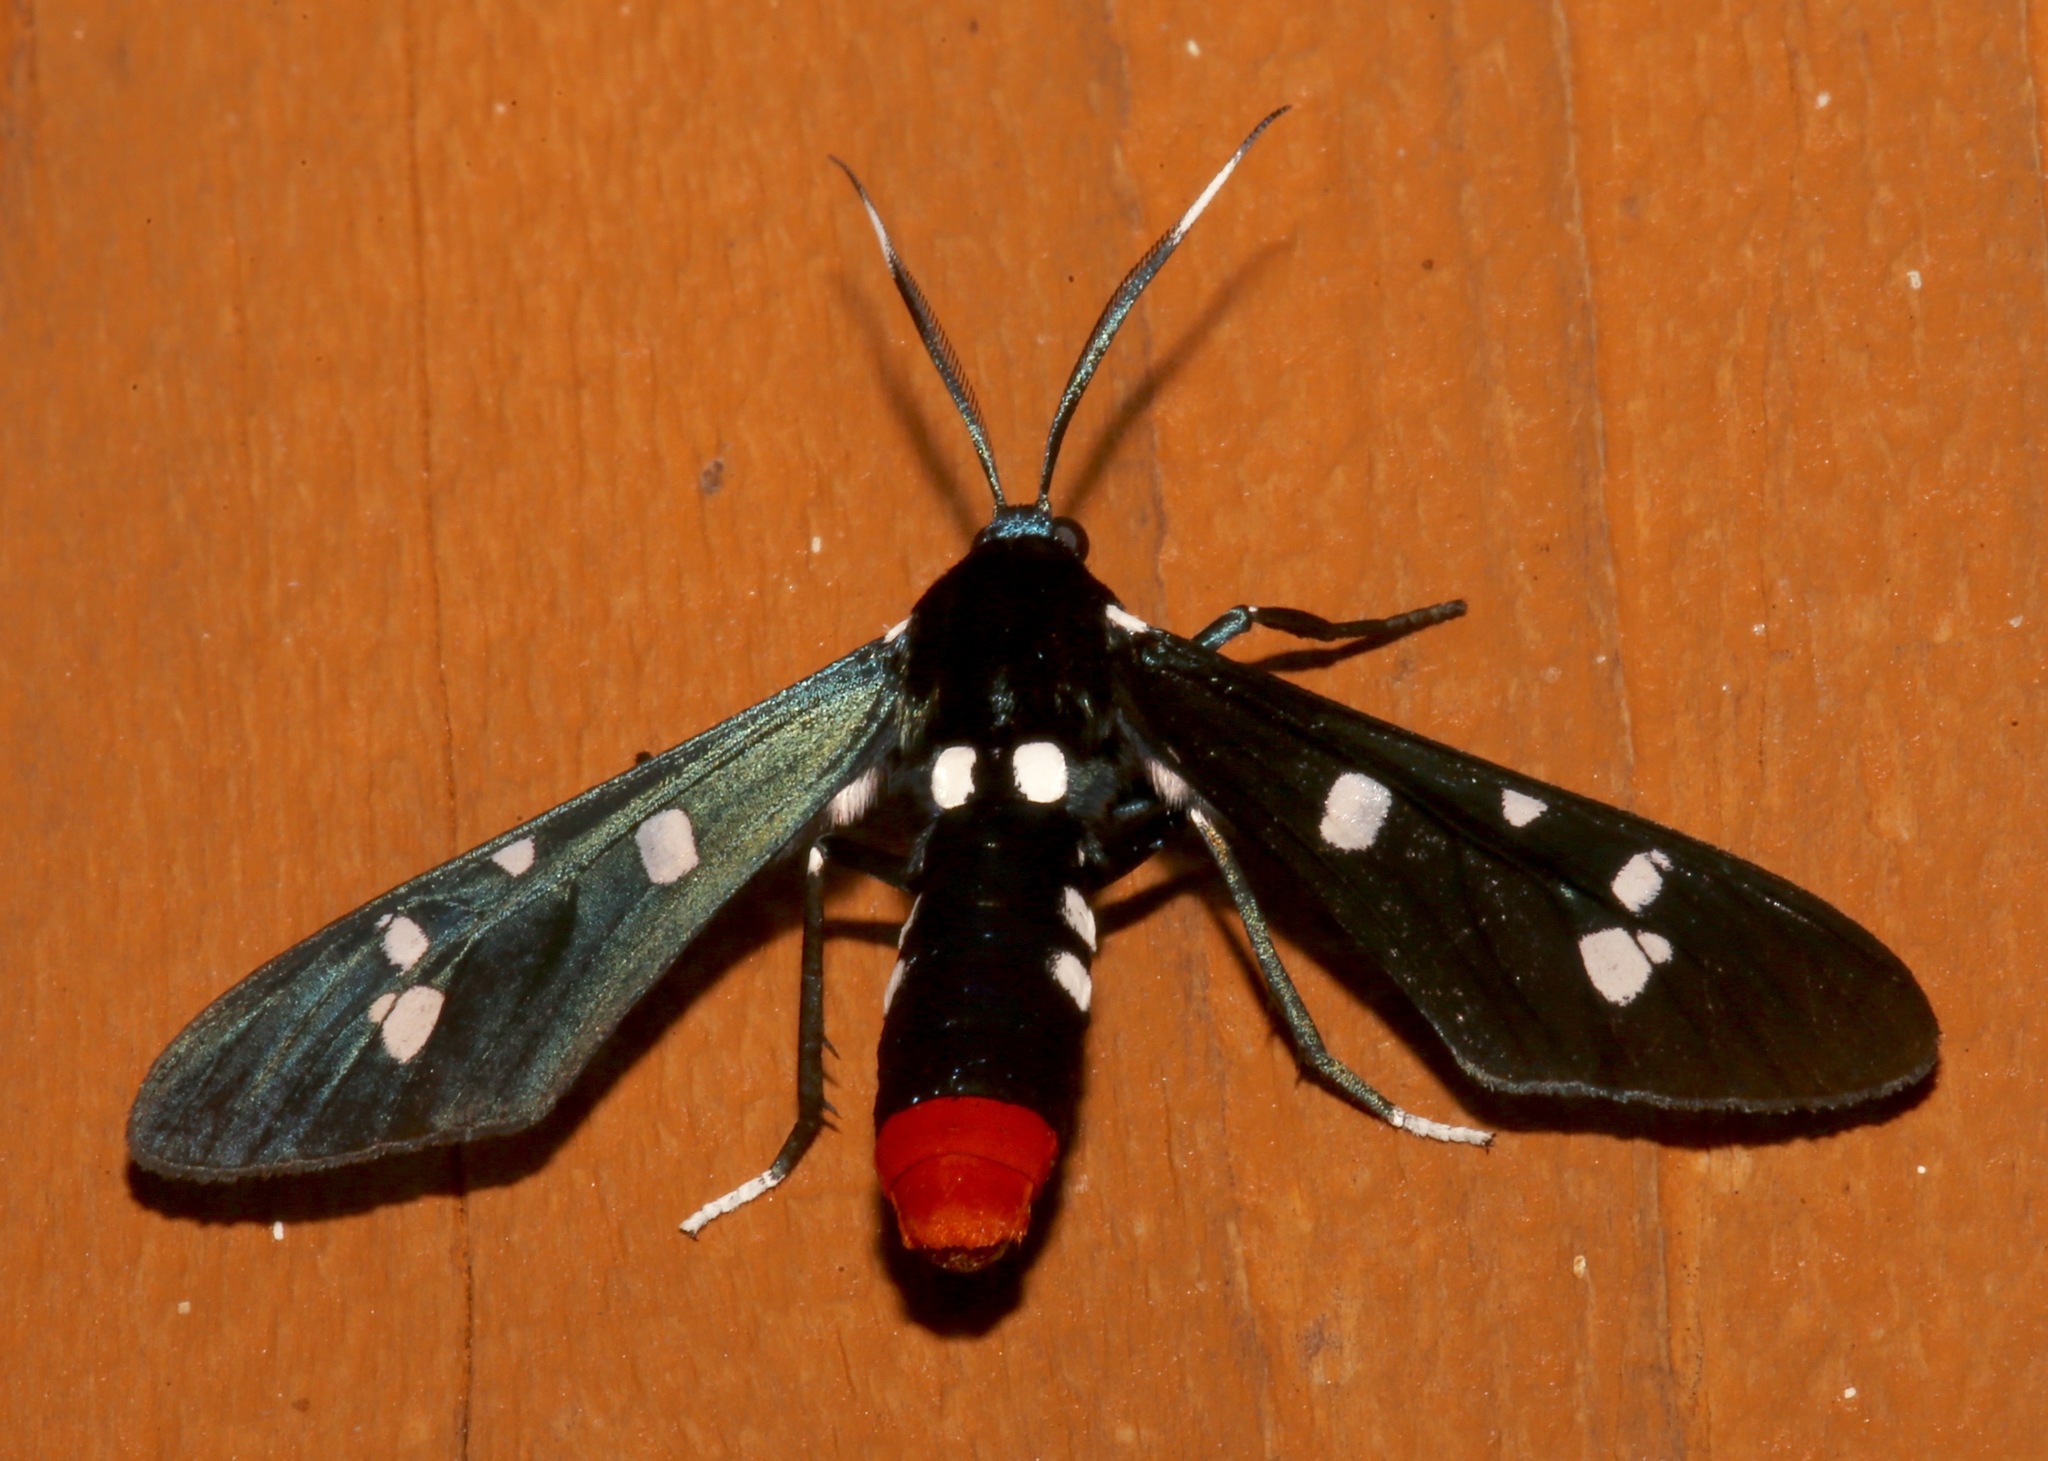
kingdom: Animalia
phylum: Arthropoda
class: Insecta
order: Lepidoptera
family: Erebidae
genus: Syntomeida
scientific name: Syntomeida epilais
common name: Polka-dot wasp moth
